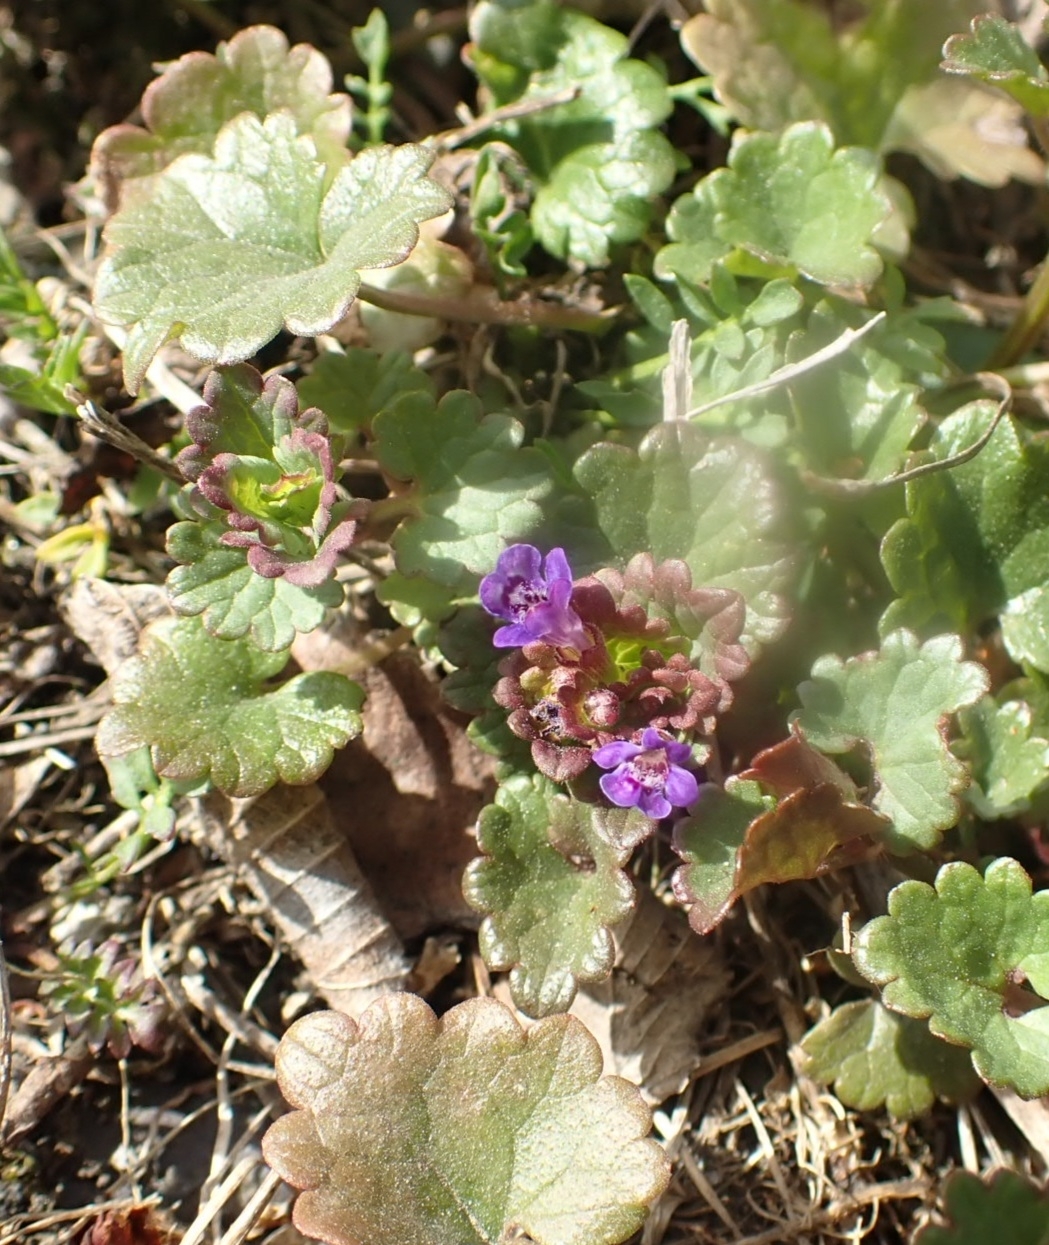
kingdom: Plantae
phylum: Tracheophyta
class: Magnoliopsida
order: Lamiales
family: Lamiaceae
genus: Glechoma
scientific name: Glechoma hederacea
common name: Ground ivy
